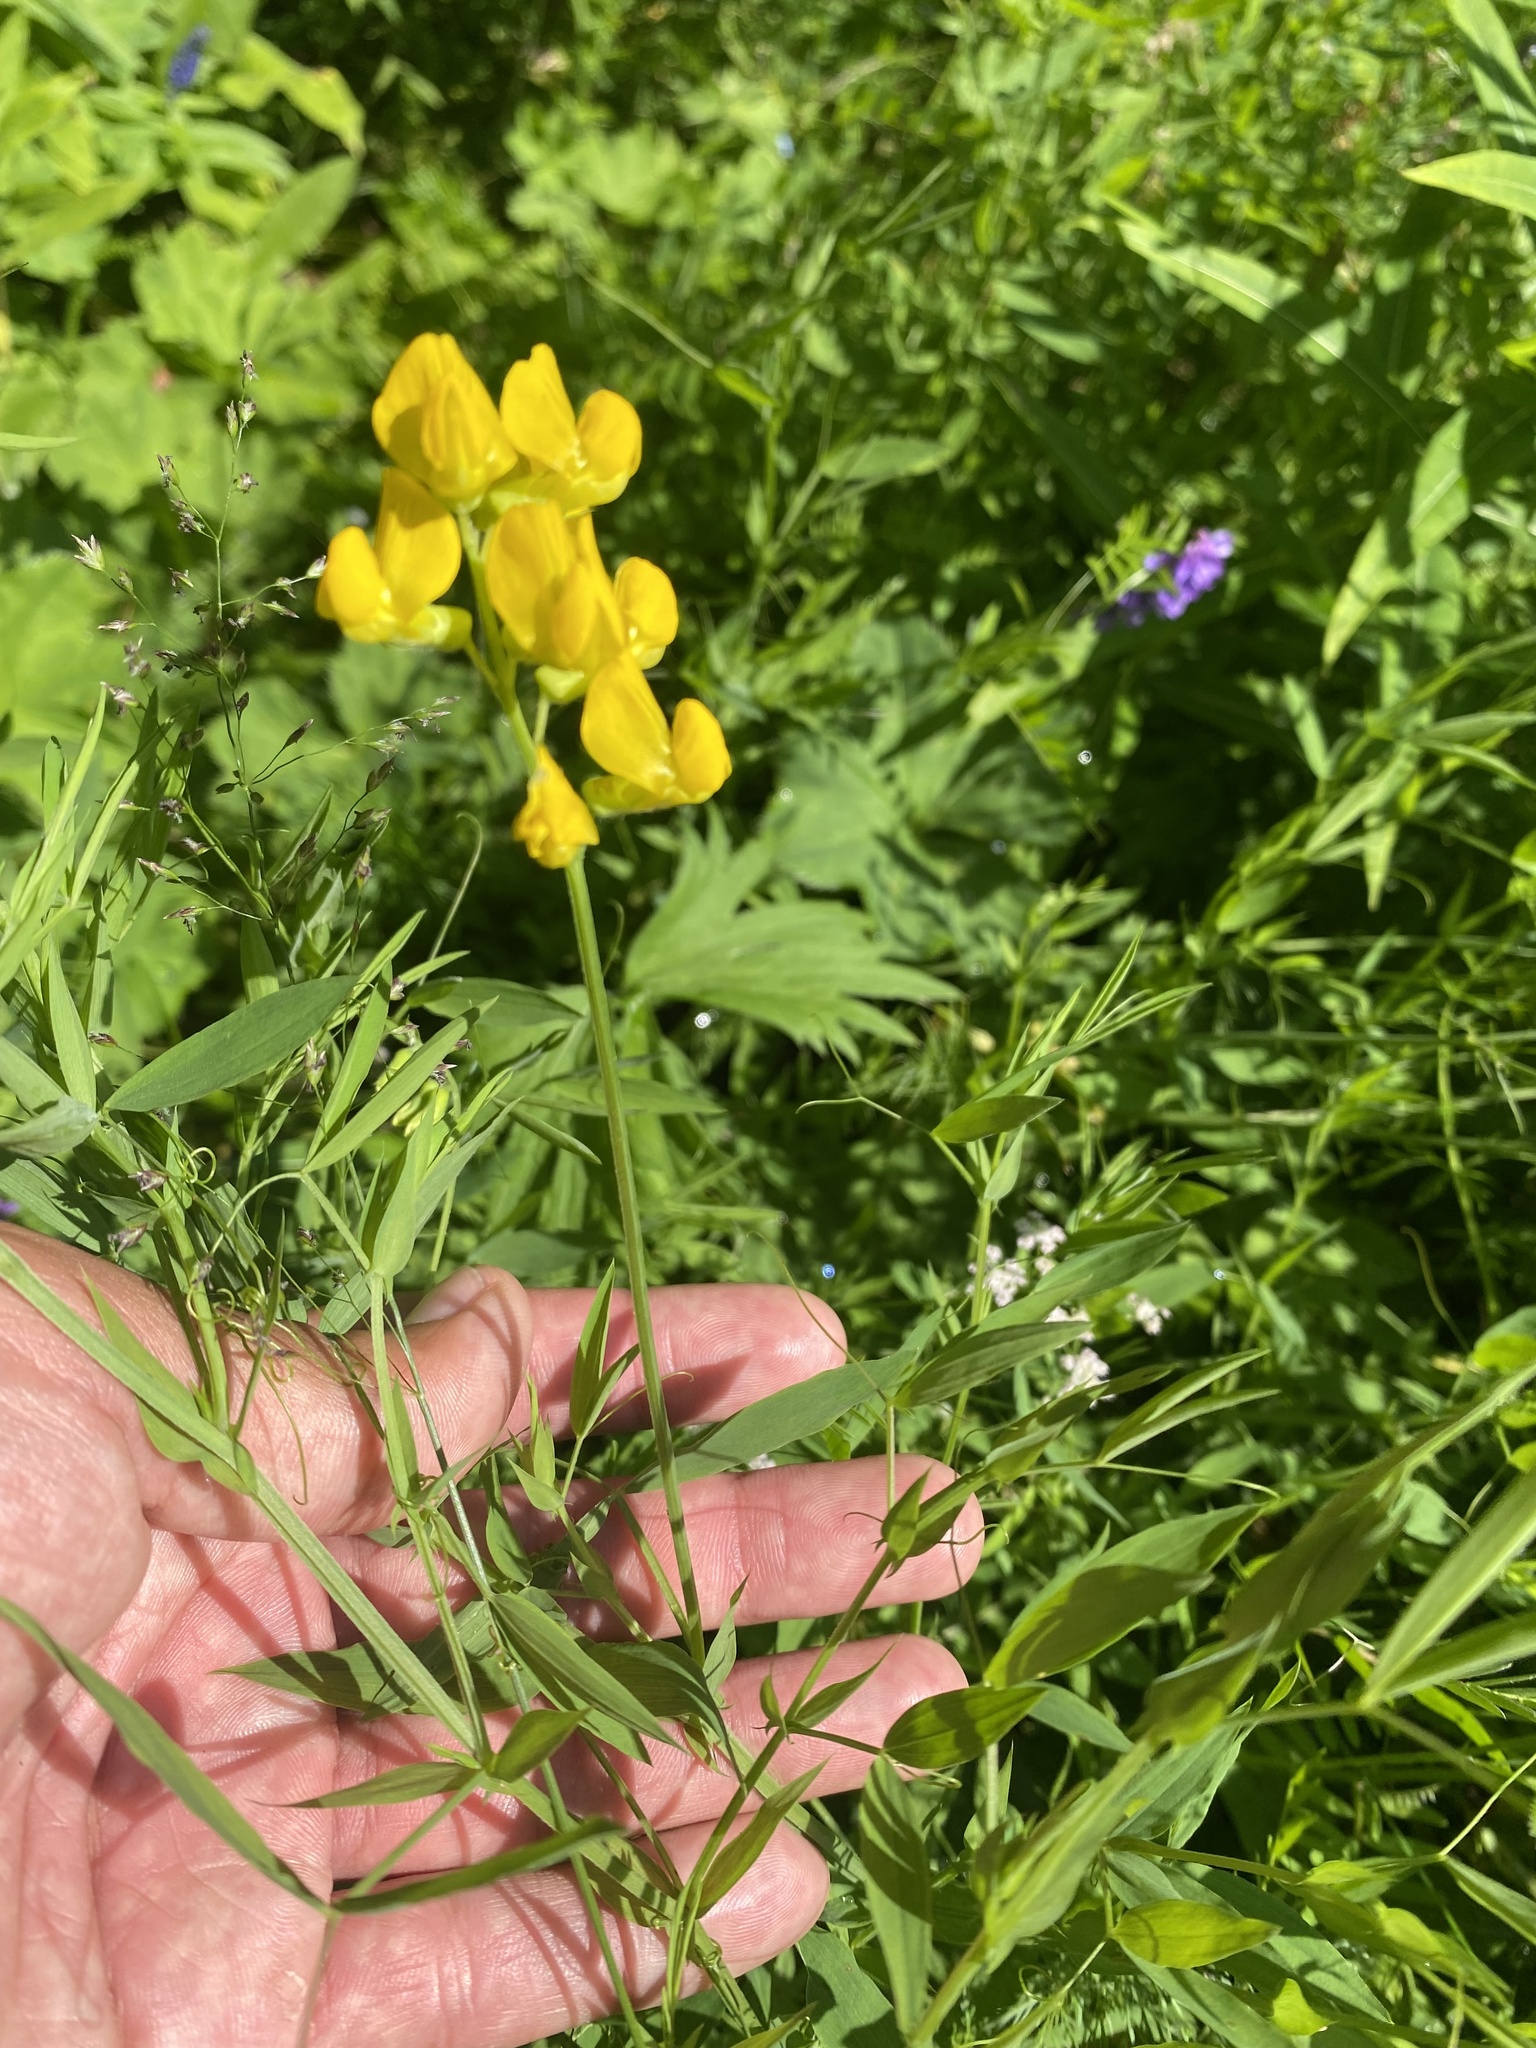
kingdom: Plantae
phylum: Tracheophyta
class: Magnoliopsida
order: Fabales
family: Fabaceae
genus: Lathyrus
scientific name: Lathyrus pratensis
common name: Meadow vetchling
